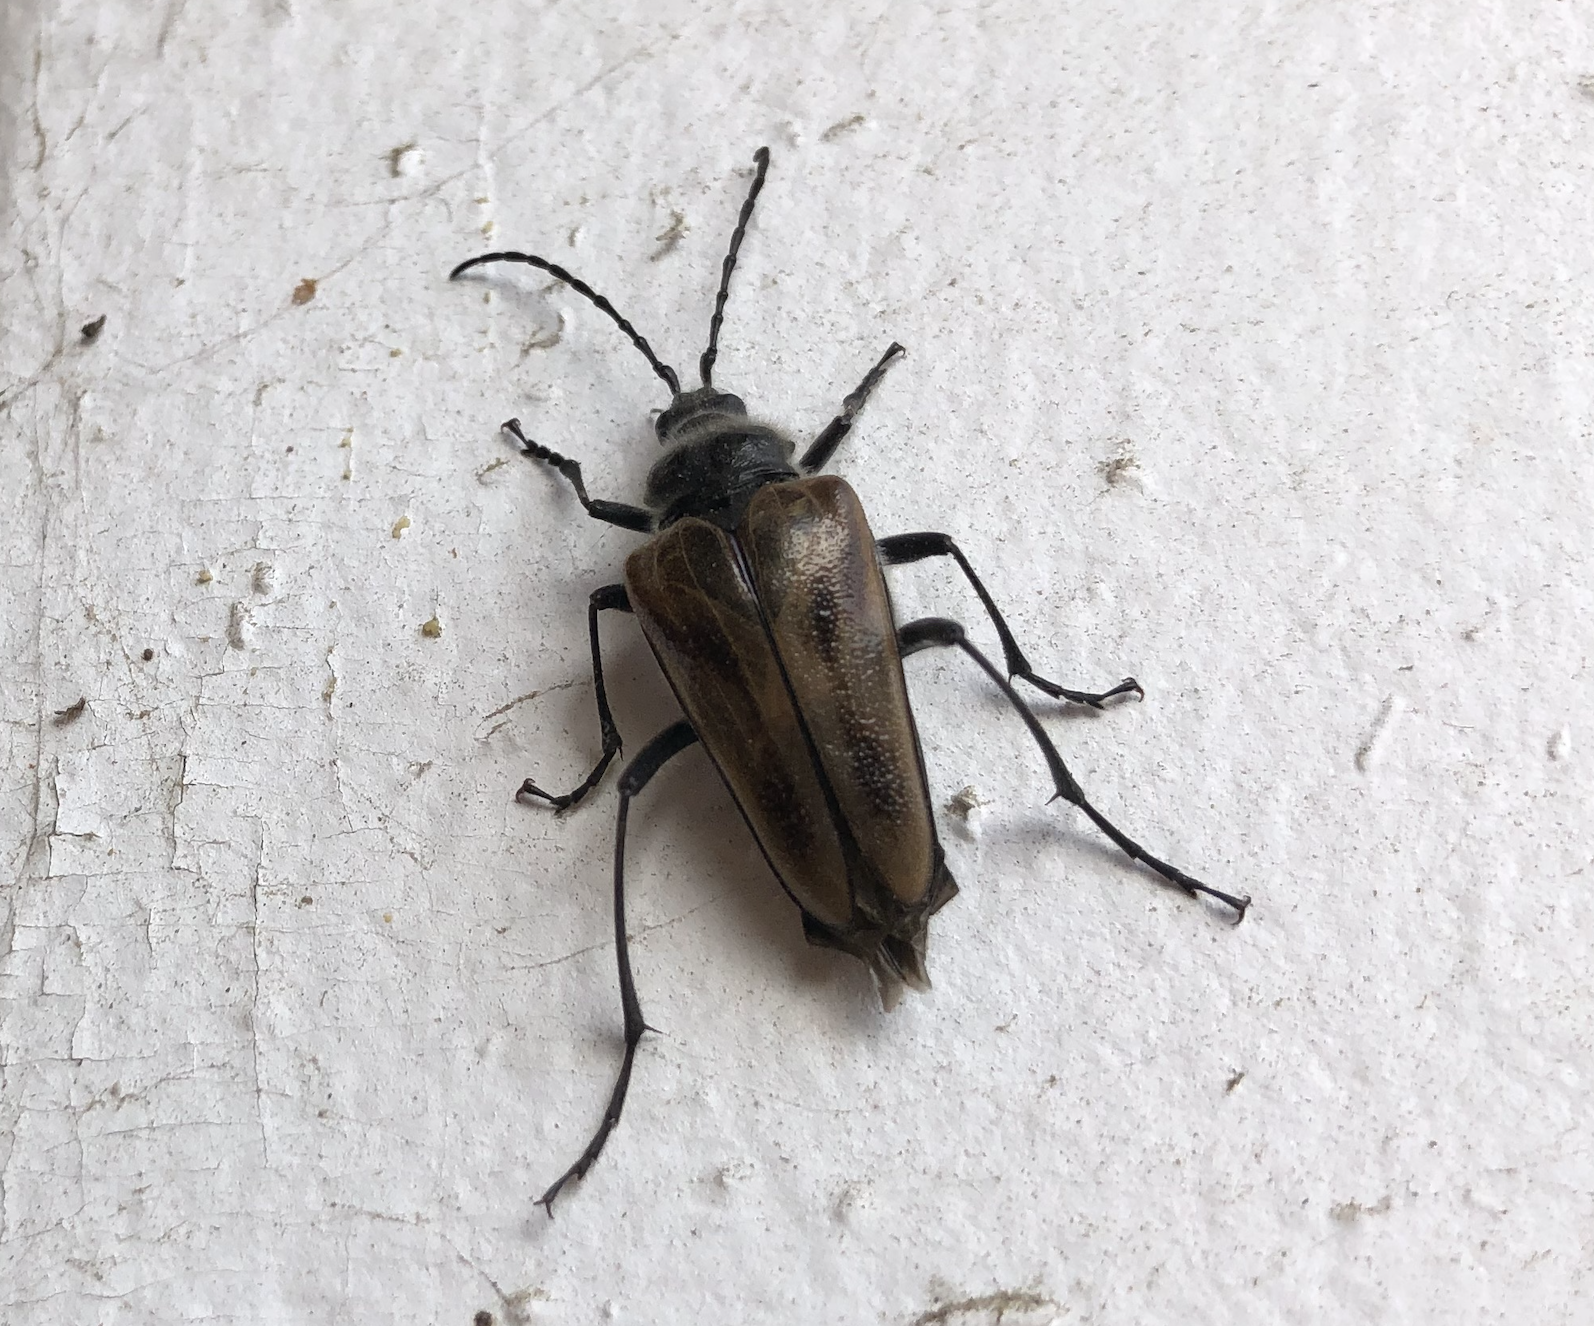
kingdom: Animalia
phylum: Arthropoda
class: Insecta
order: Coleoptera
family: Cerambycidae
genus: Pachyta
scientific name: Pachyta lamed
